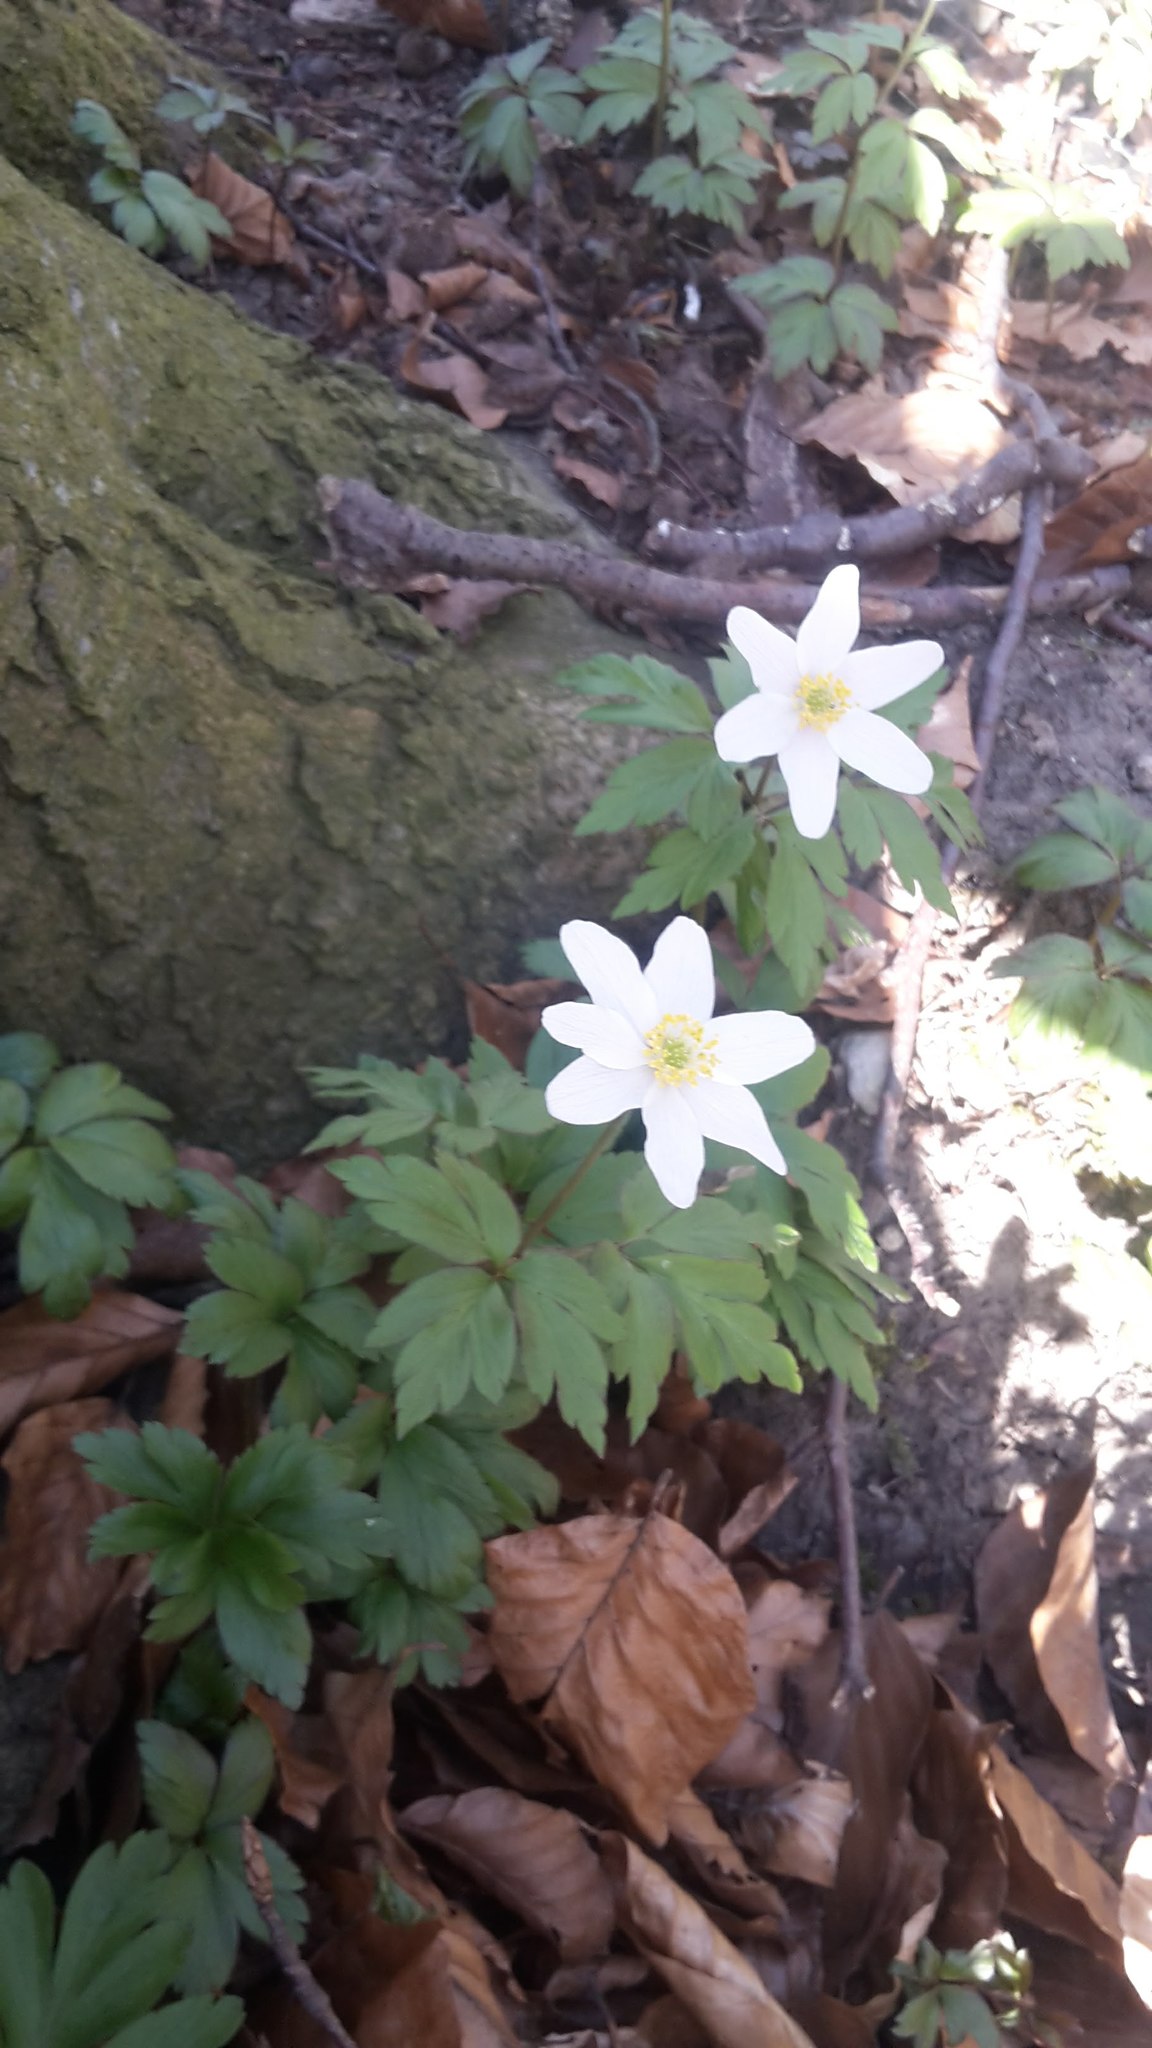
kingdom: Plantae
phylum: Tracheophyta
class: Magnoliopsida
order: Ranunculales
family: Ranunculaceae
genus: Anemone
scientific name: Anemone nemorosa
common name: Wood anemone
